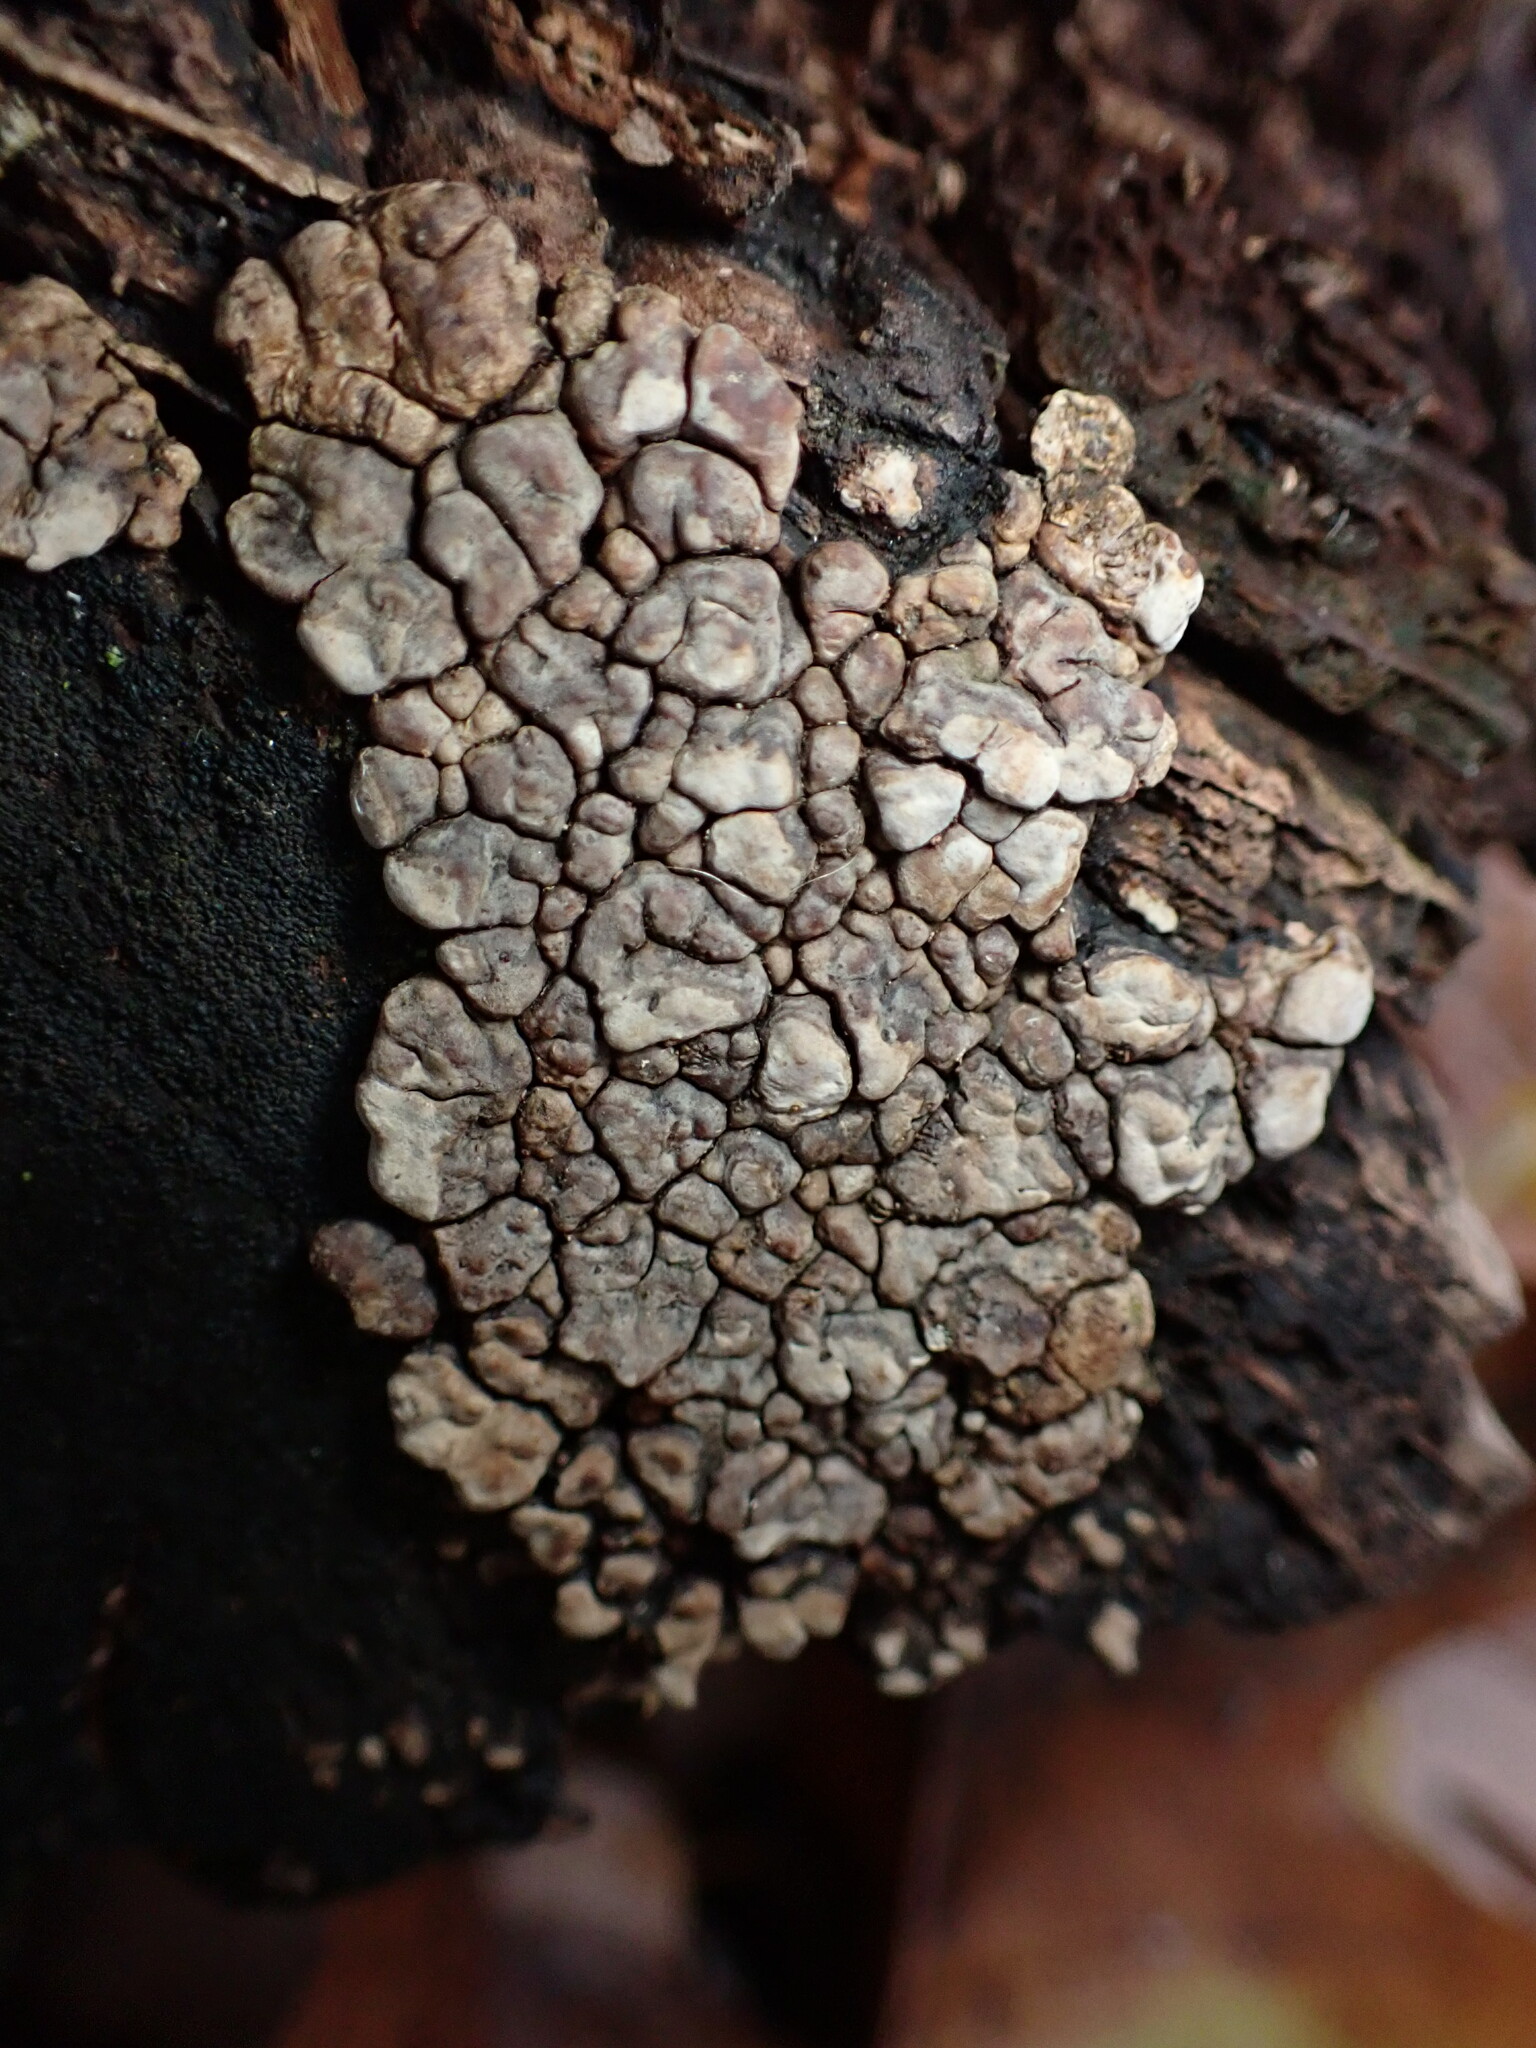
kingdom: Fungi
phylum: Basidiomycota
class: Agaricomycetes
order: Russulales
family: Stereaceae
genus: Xylobolus
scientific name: Xylobolus frustulatus
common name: Ceramic parchment
